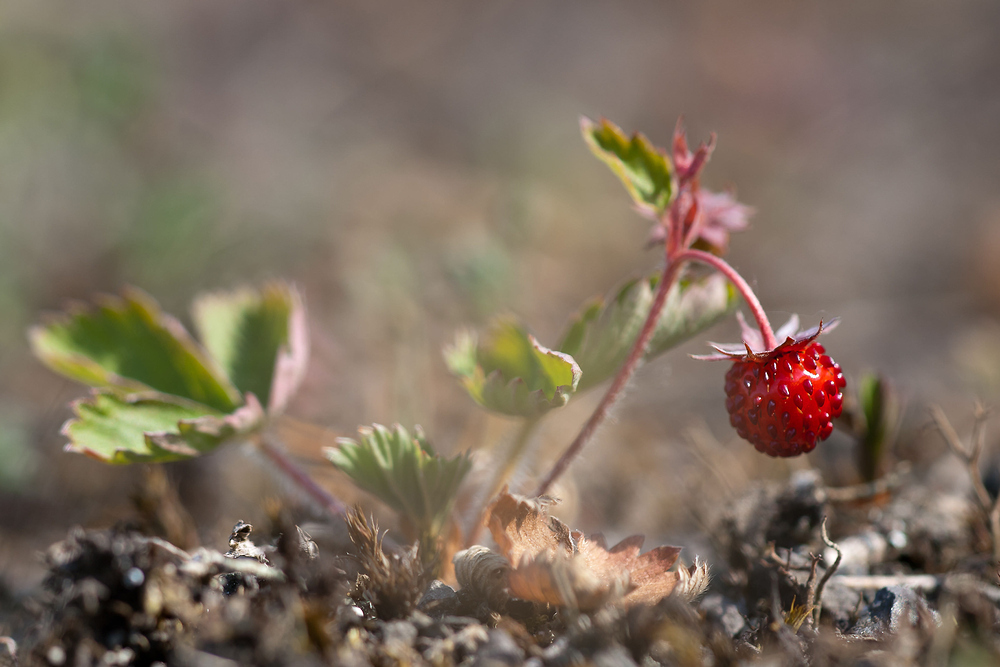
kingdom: Plantae
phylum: Tracheophyta
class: Magnoliopsida
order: Rosales
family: Rosaceae
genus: Fragaria
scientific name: Fragaria vesca
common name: Wild strawberry
